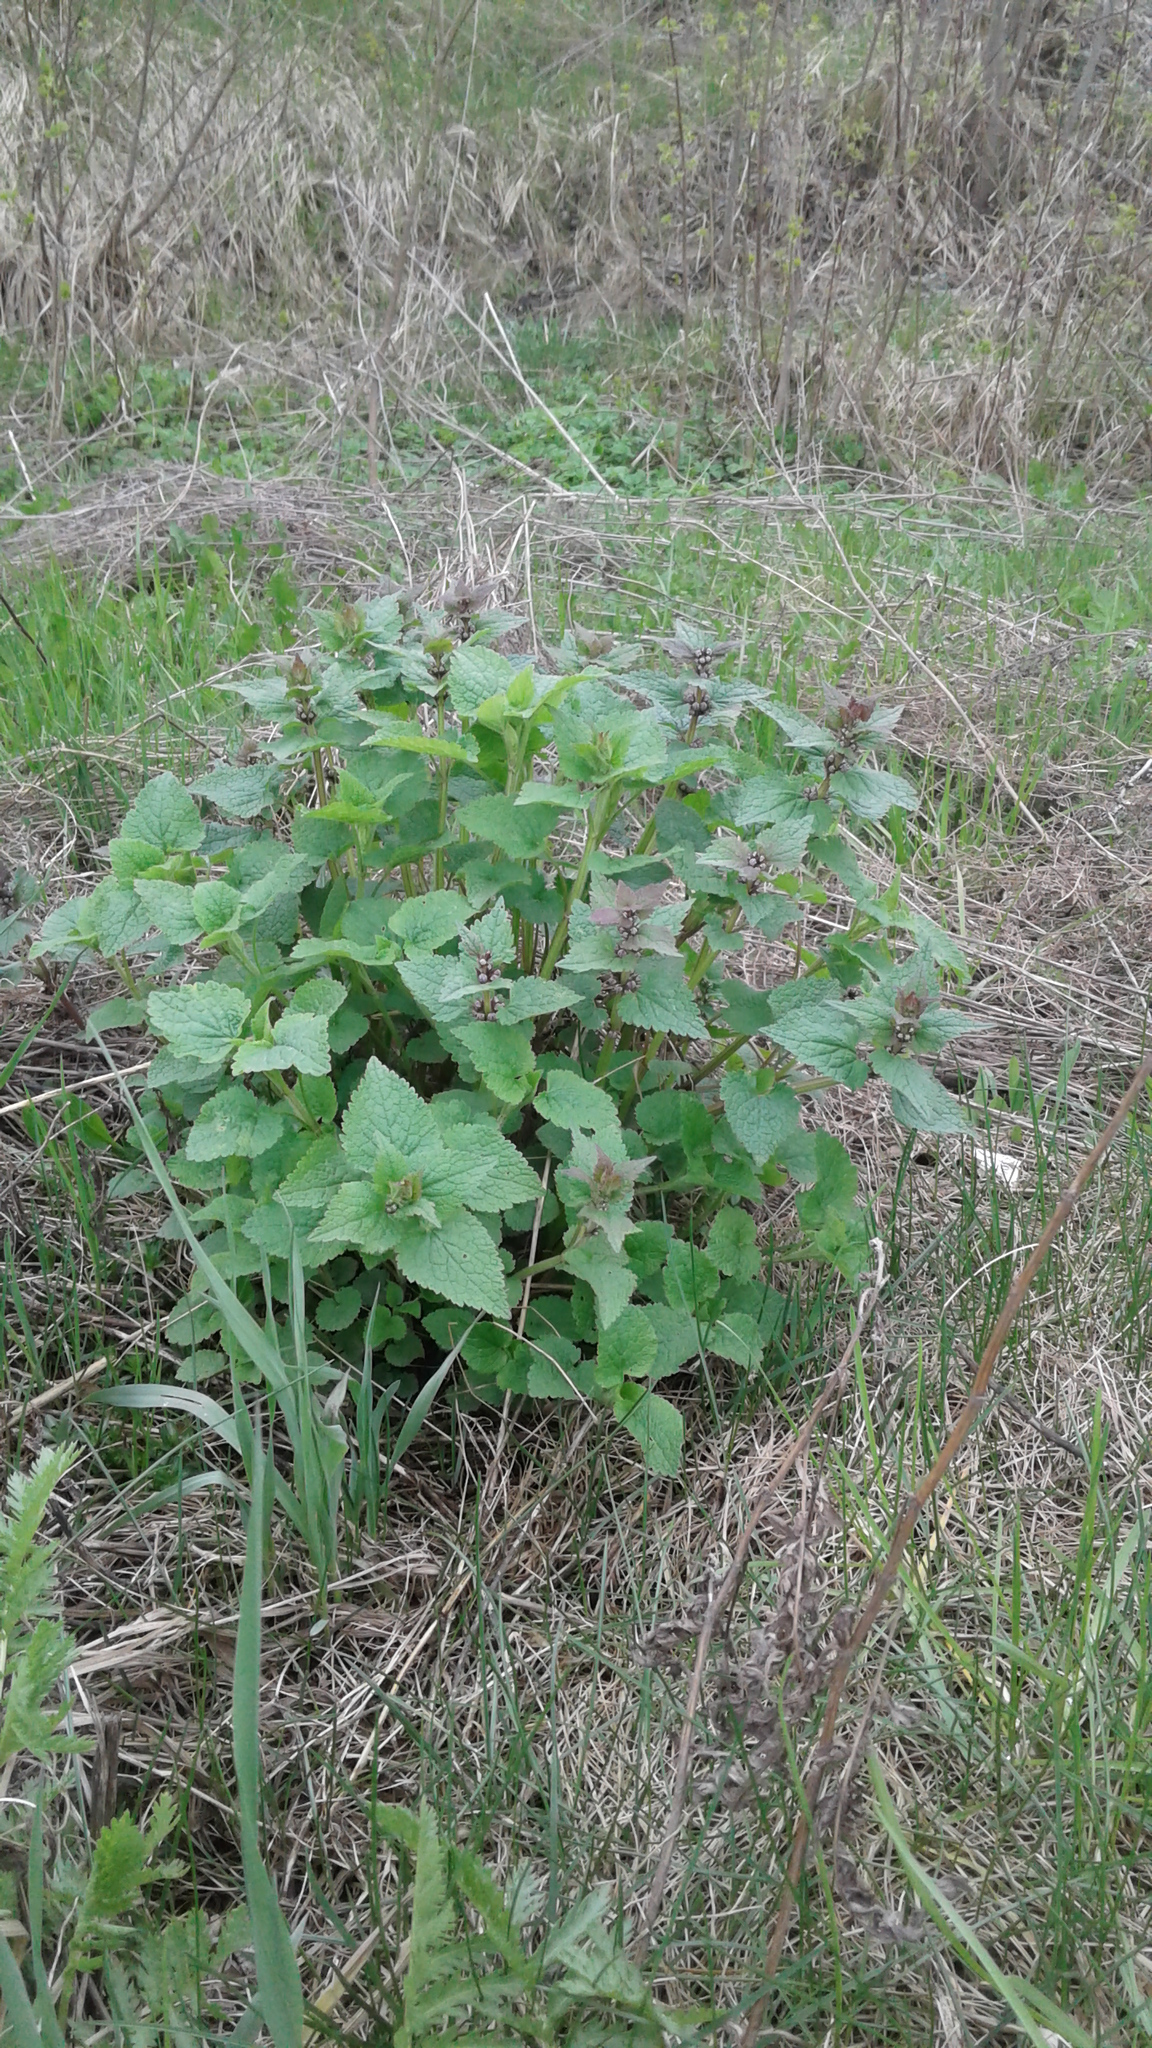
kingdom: Plantae
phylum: Tracheophyta
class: Magnoliopsida
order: Lamiales
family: Lamiaceae
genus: Lamium
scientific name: Lamium maculatum
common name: Spotted dead-nettle
